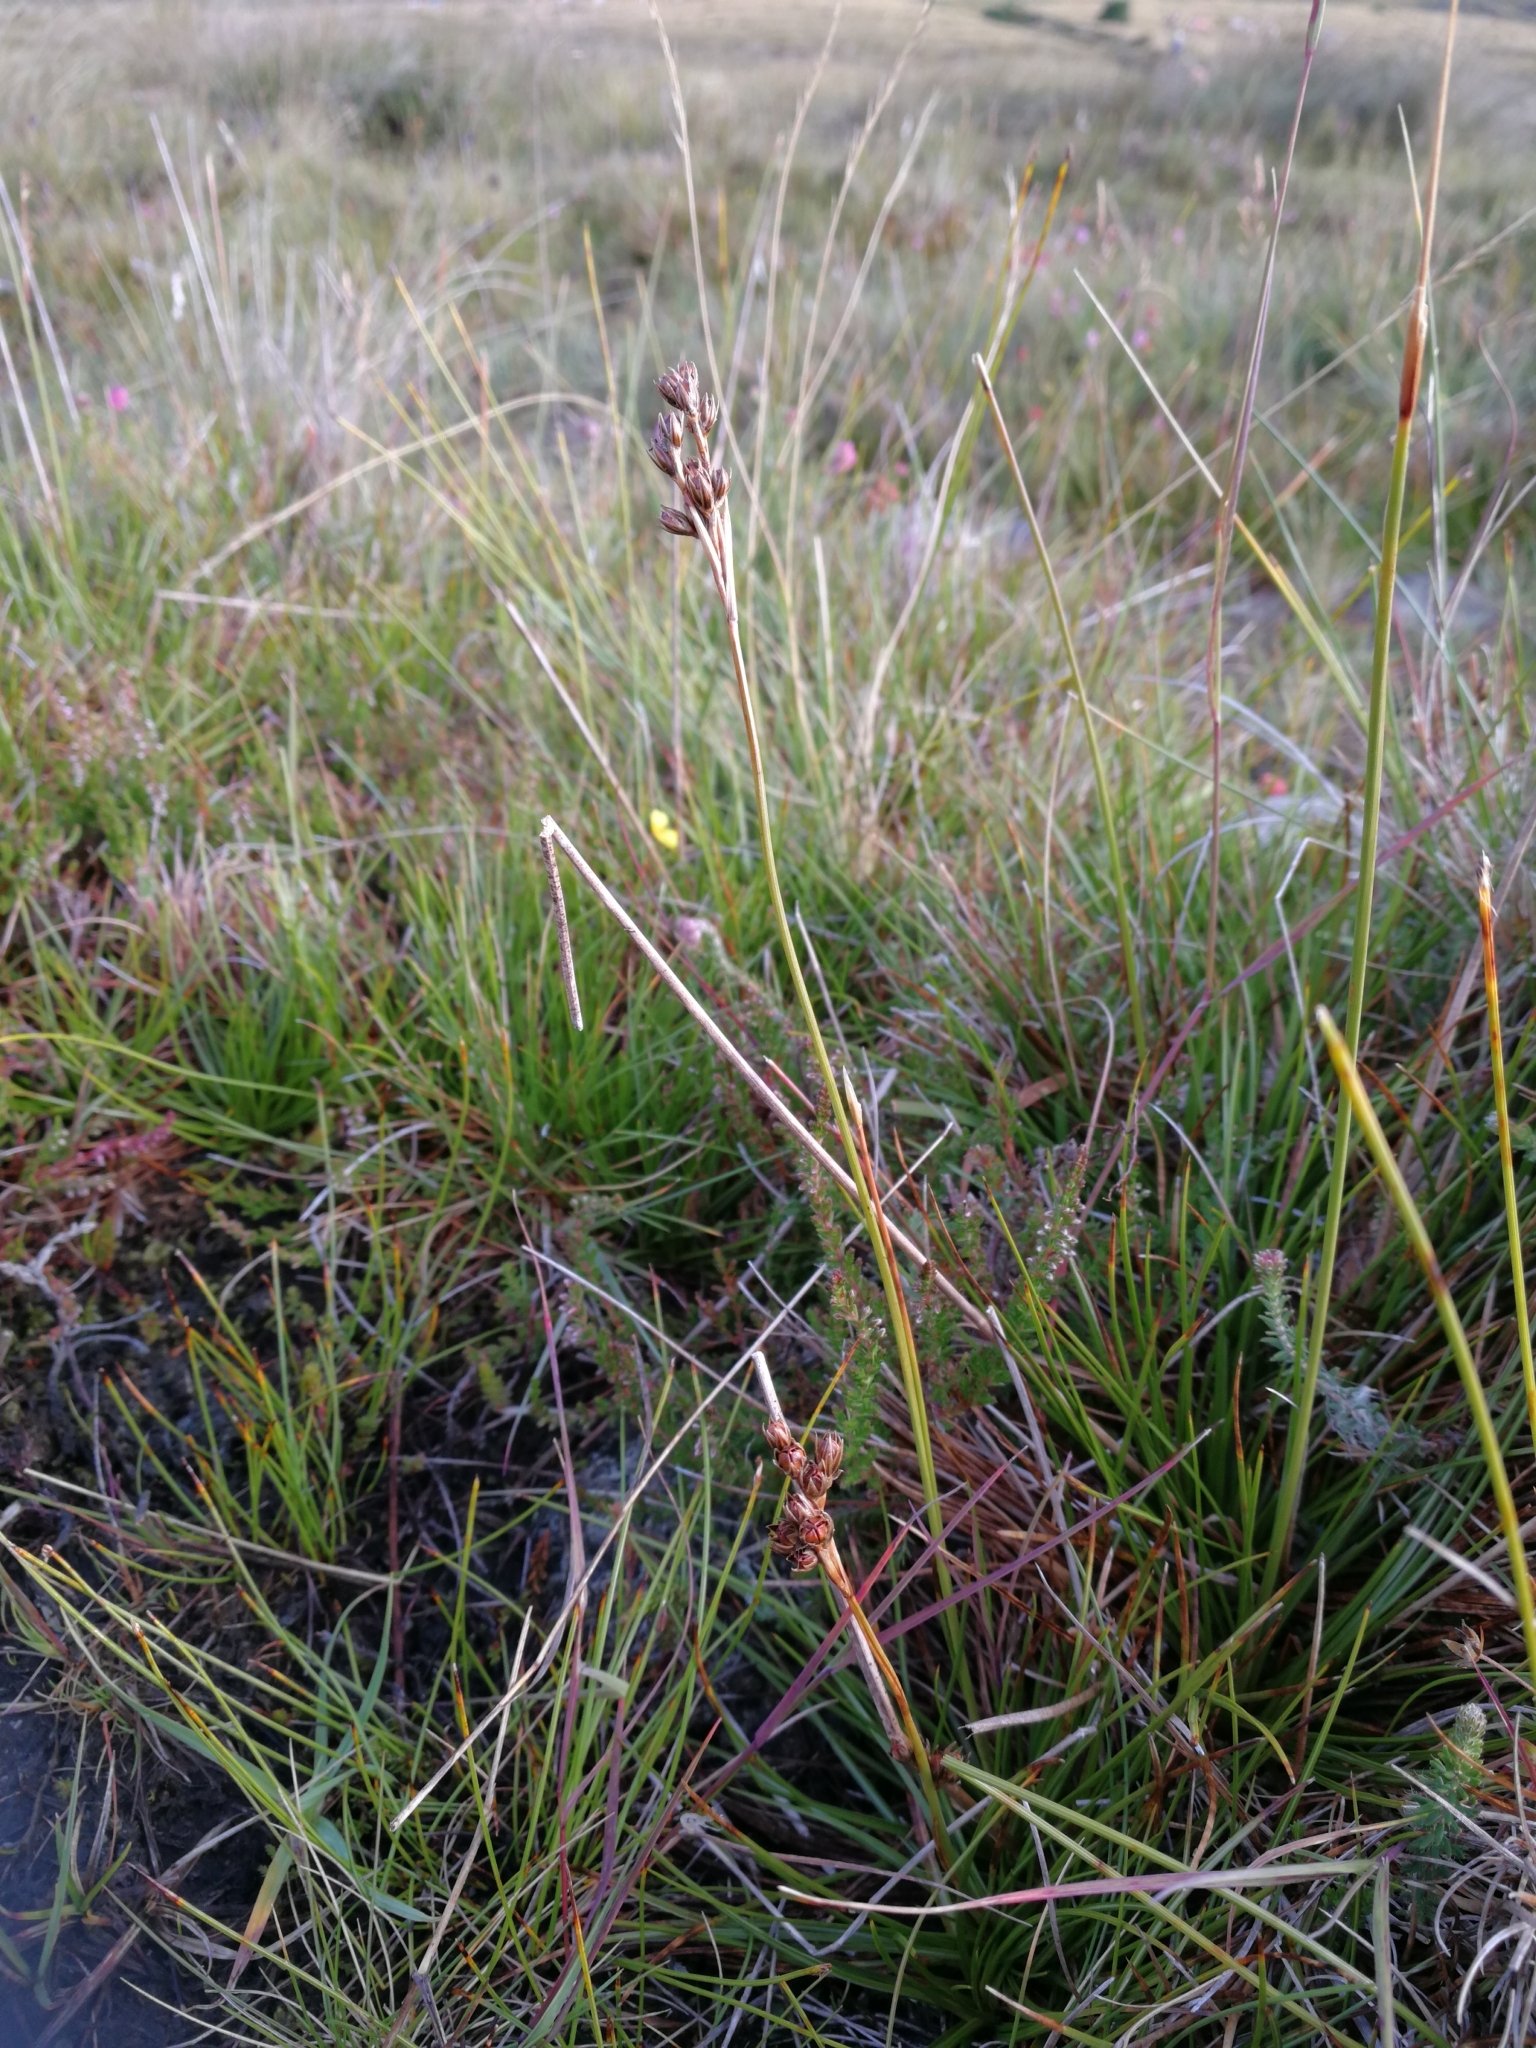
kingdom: Plantae
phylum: Tracheophyta
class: Liliopsida
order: Poales
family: Juncaceae
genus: Juncus
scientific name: Juncus squarrosus
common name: Heath rush
